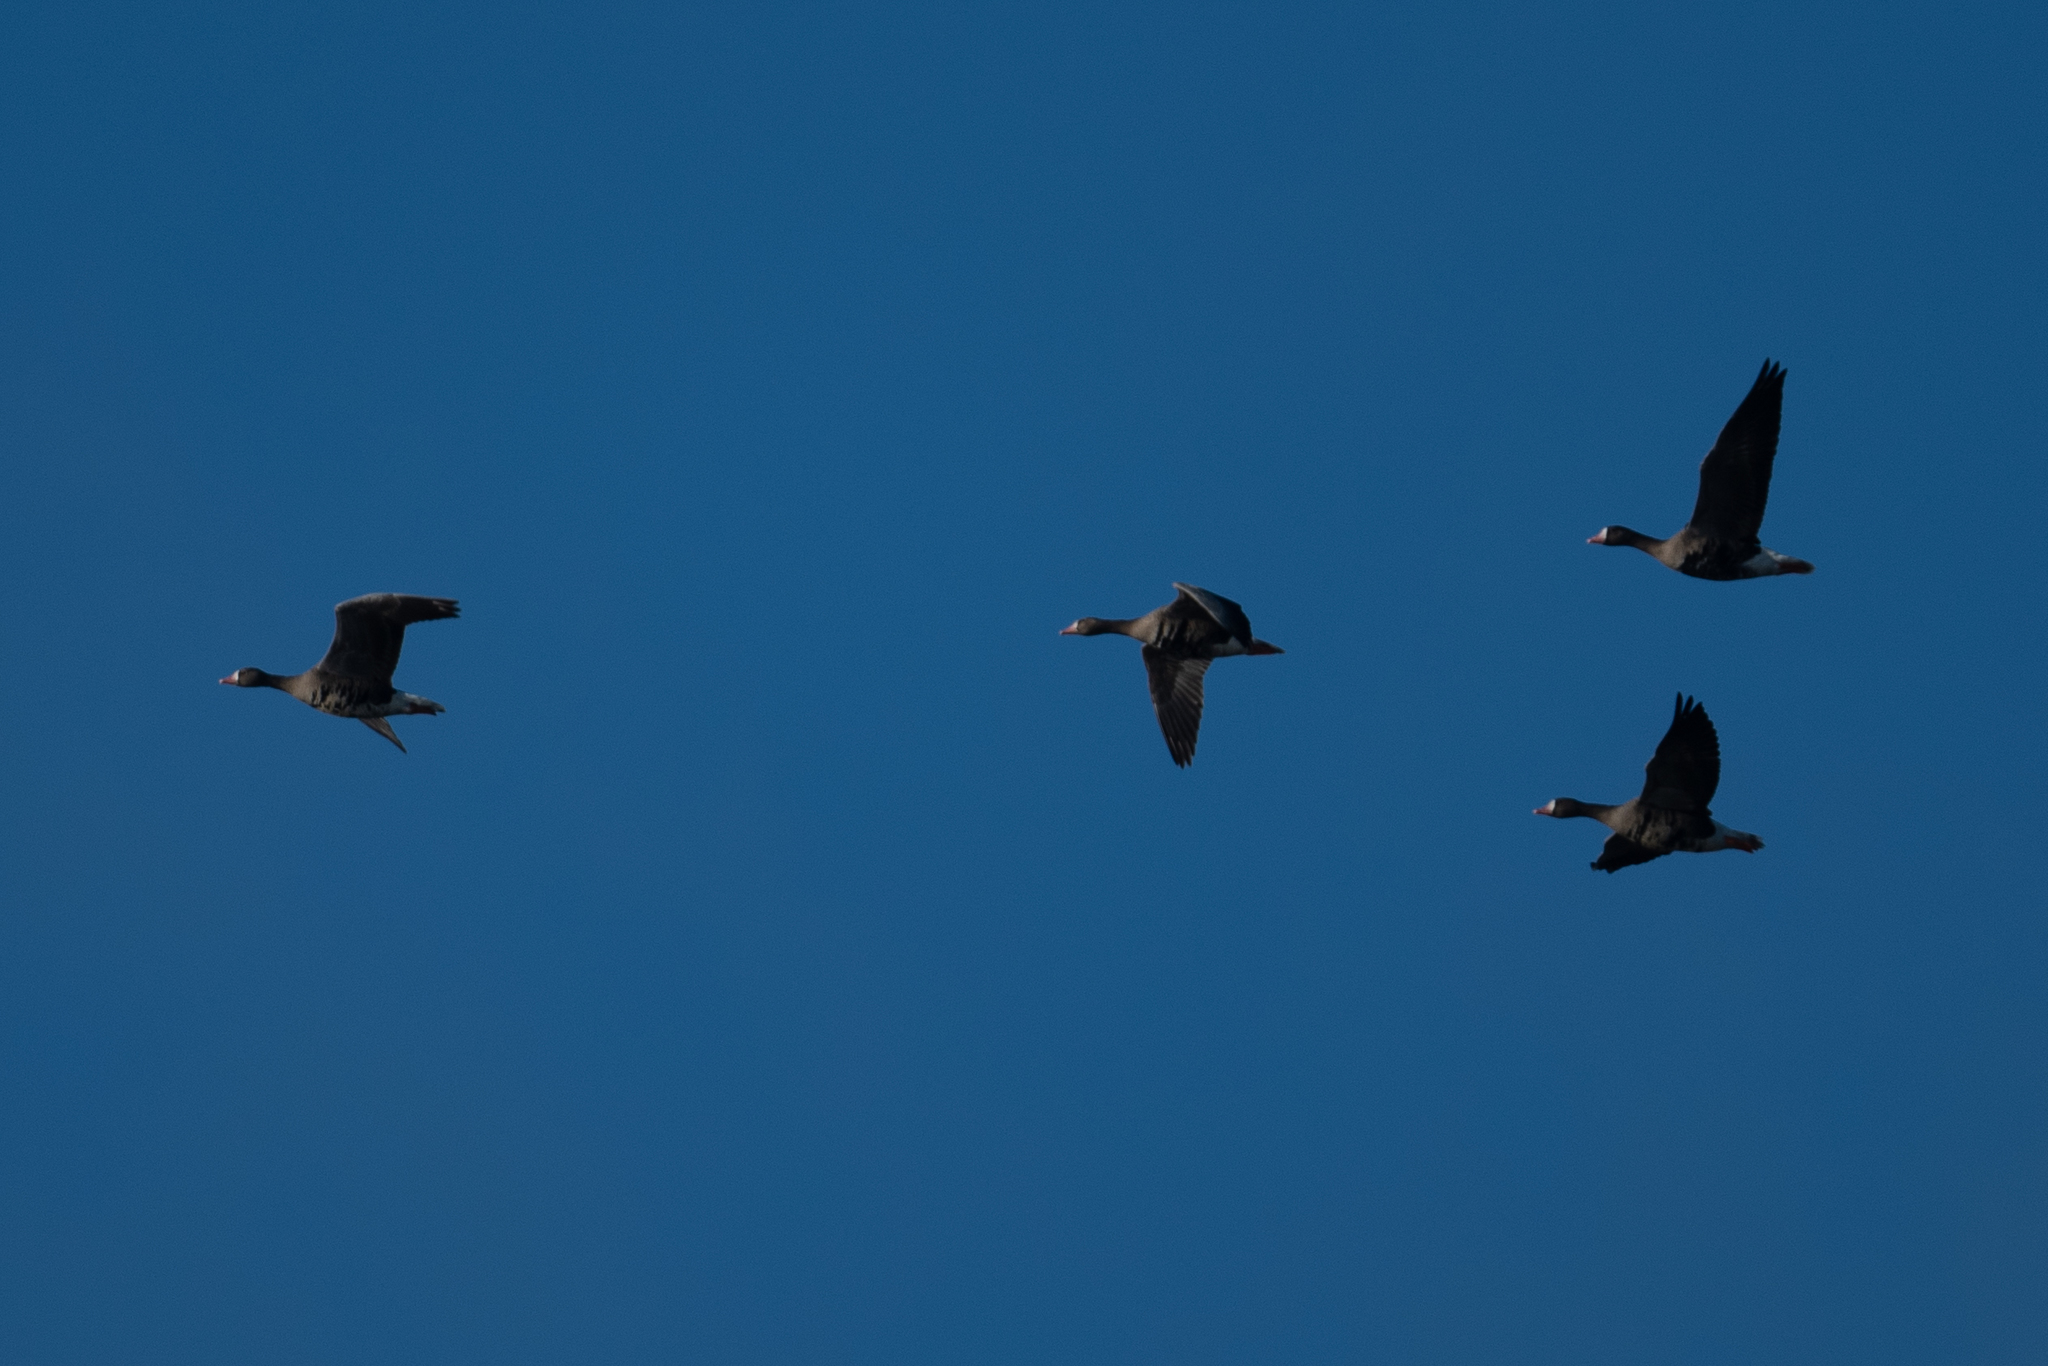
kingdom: Animalia
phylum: Chordata
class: Aves
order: Anseriformes
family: Anatidae
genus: Anser
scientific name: Anser albifrons
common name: Greater white-fronted goose
